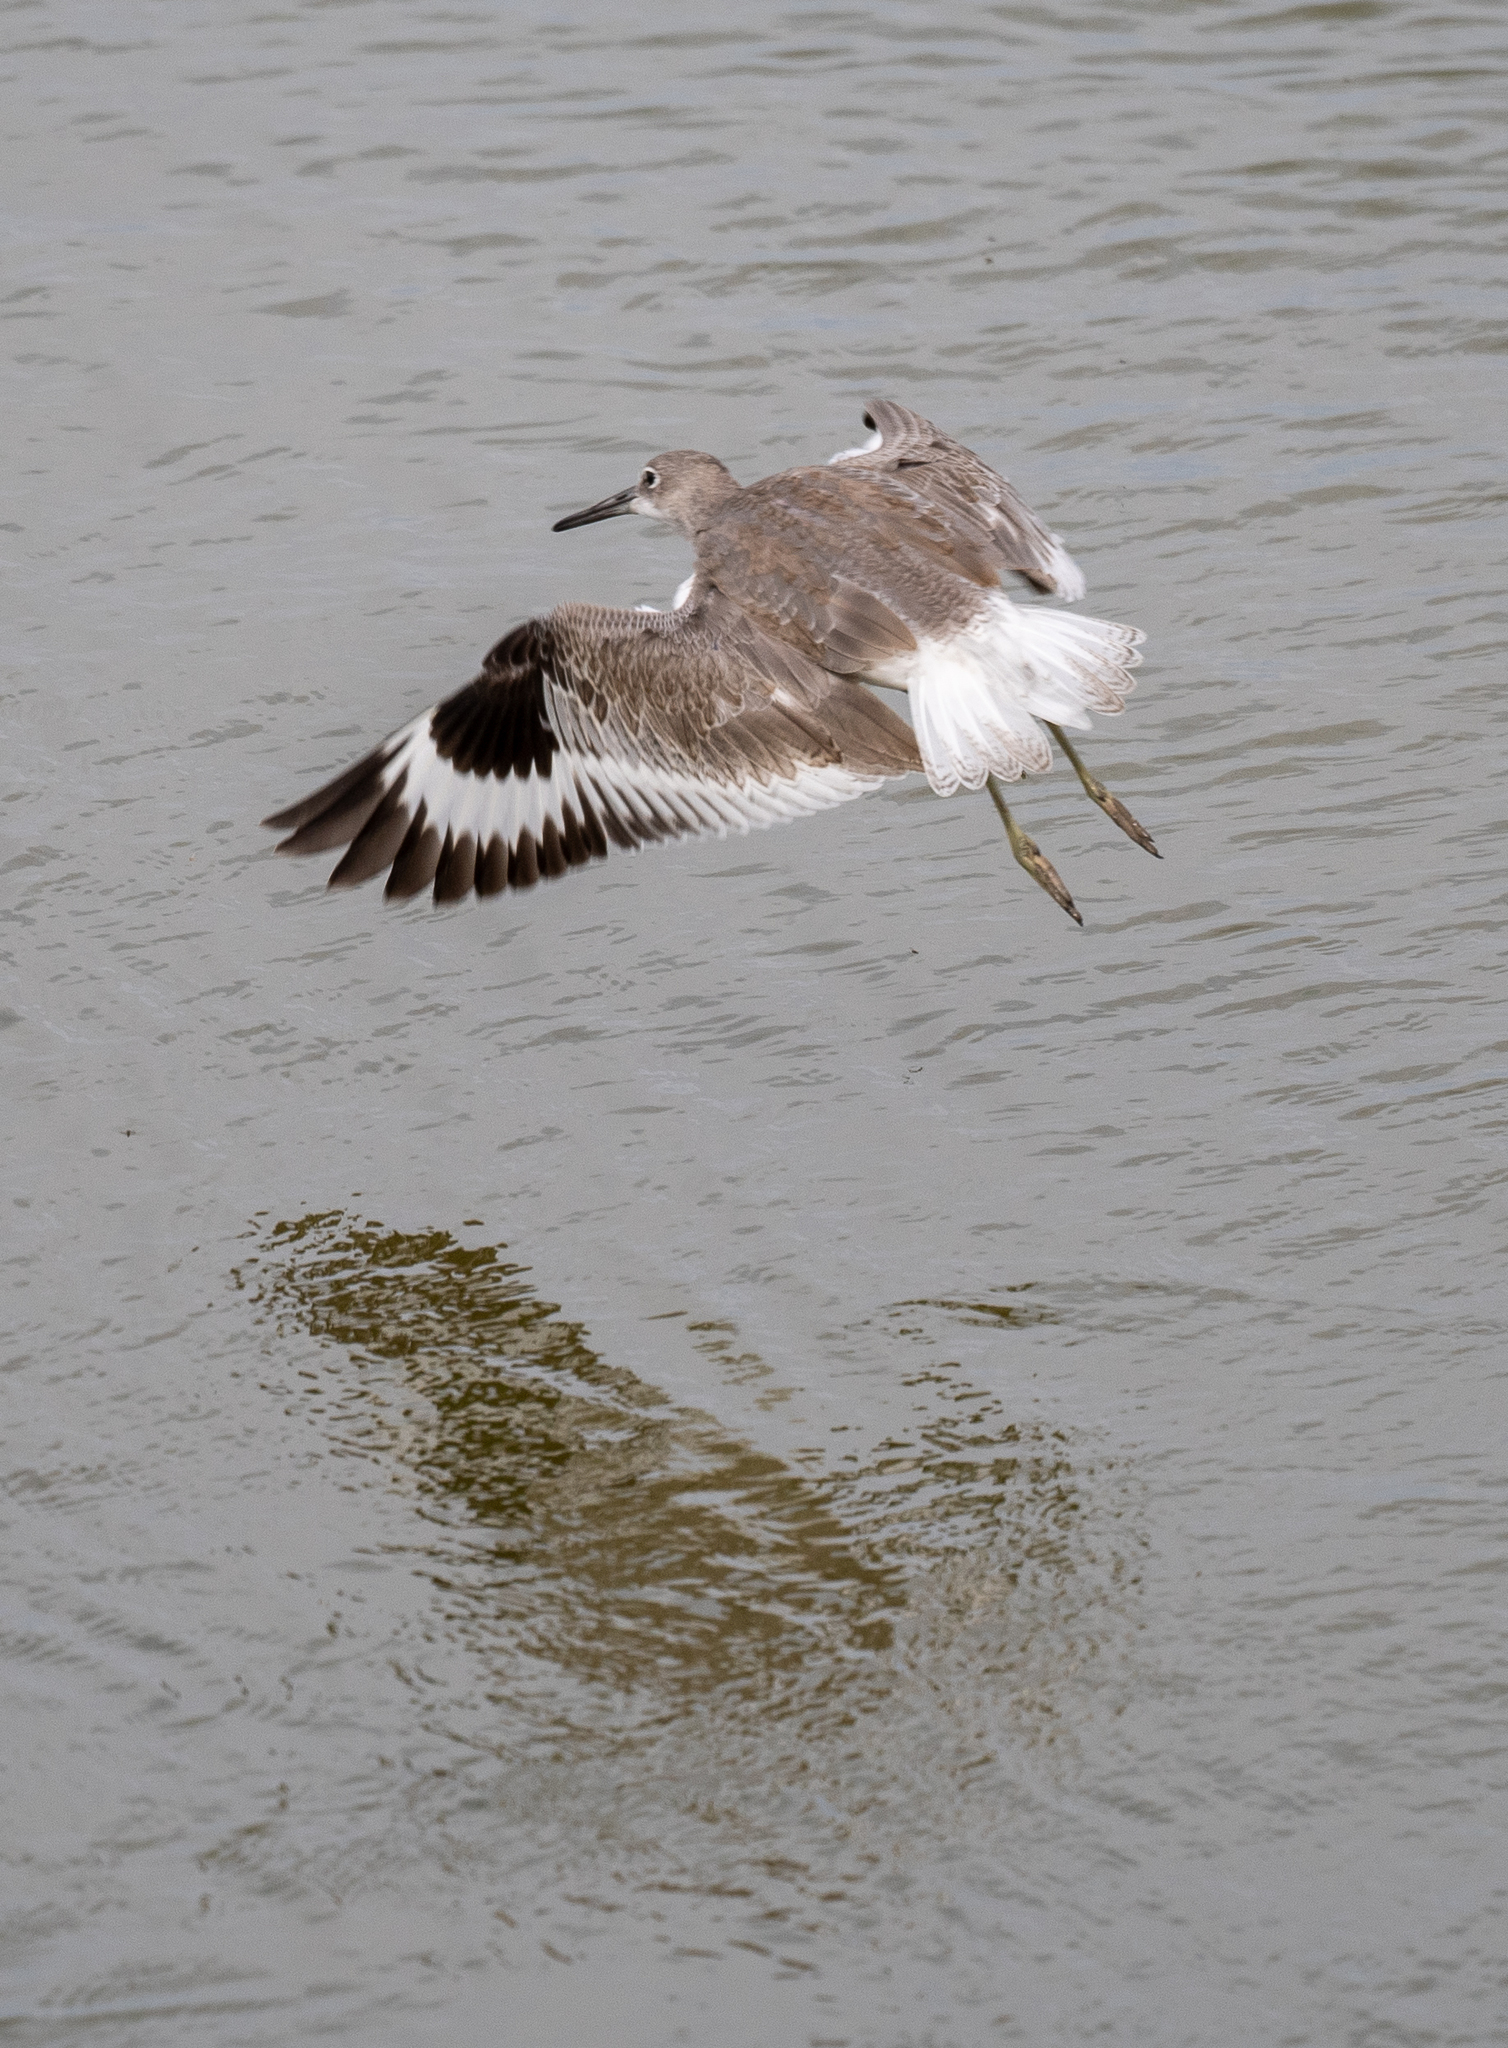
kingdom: Animalia
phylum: Chordata
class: Aves
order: Charadriiformes
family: Scolopacidae
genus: Tringa
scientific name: Tringa semipalmata
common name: Willet
